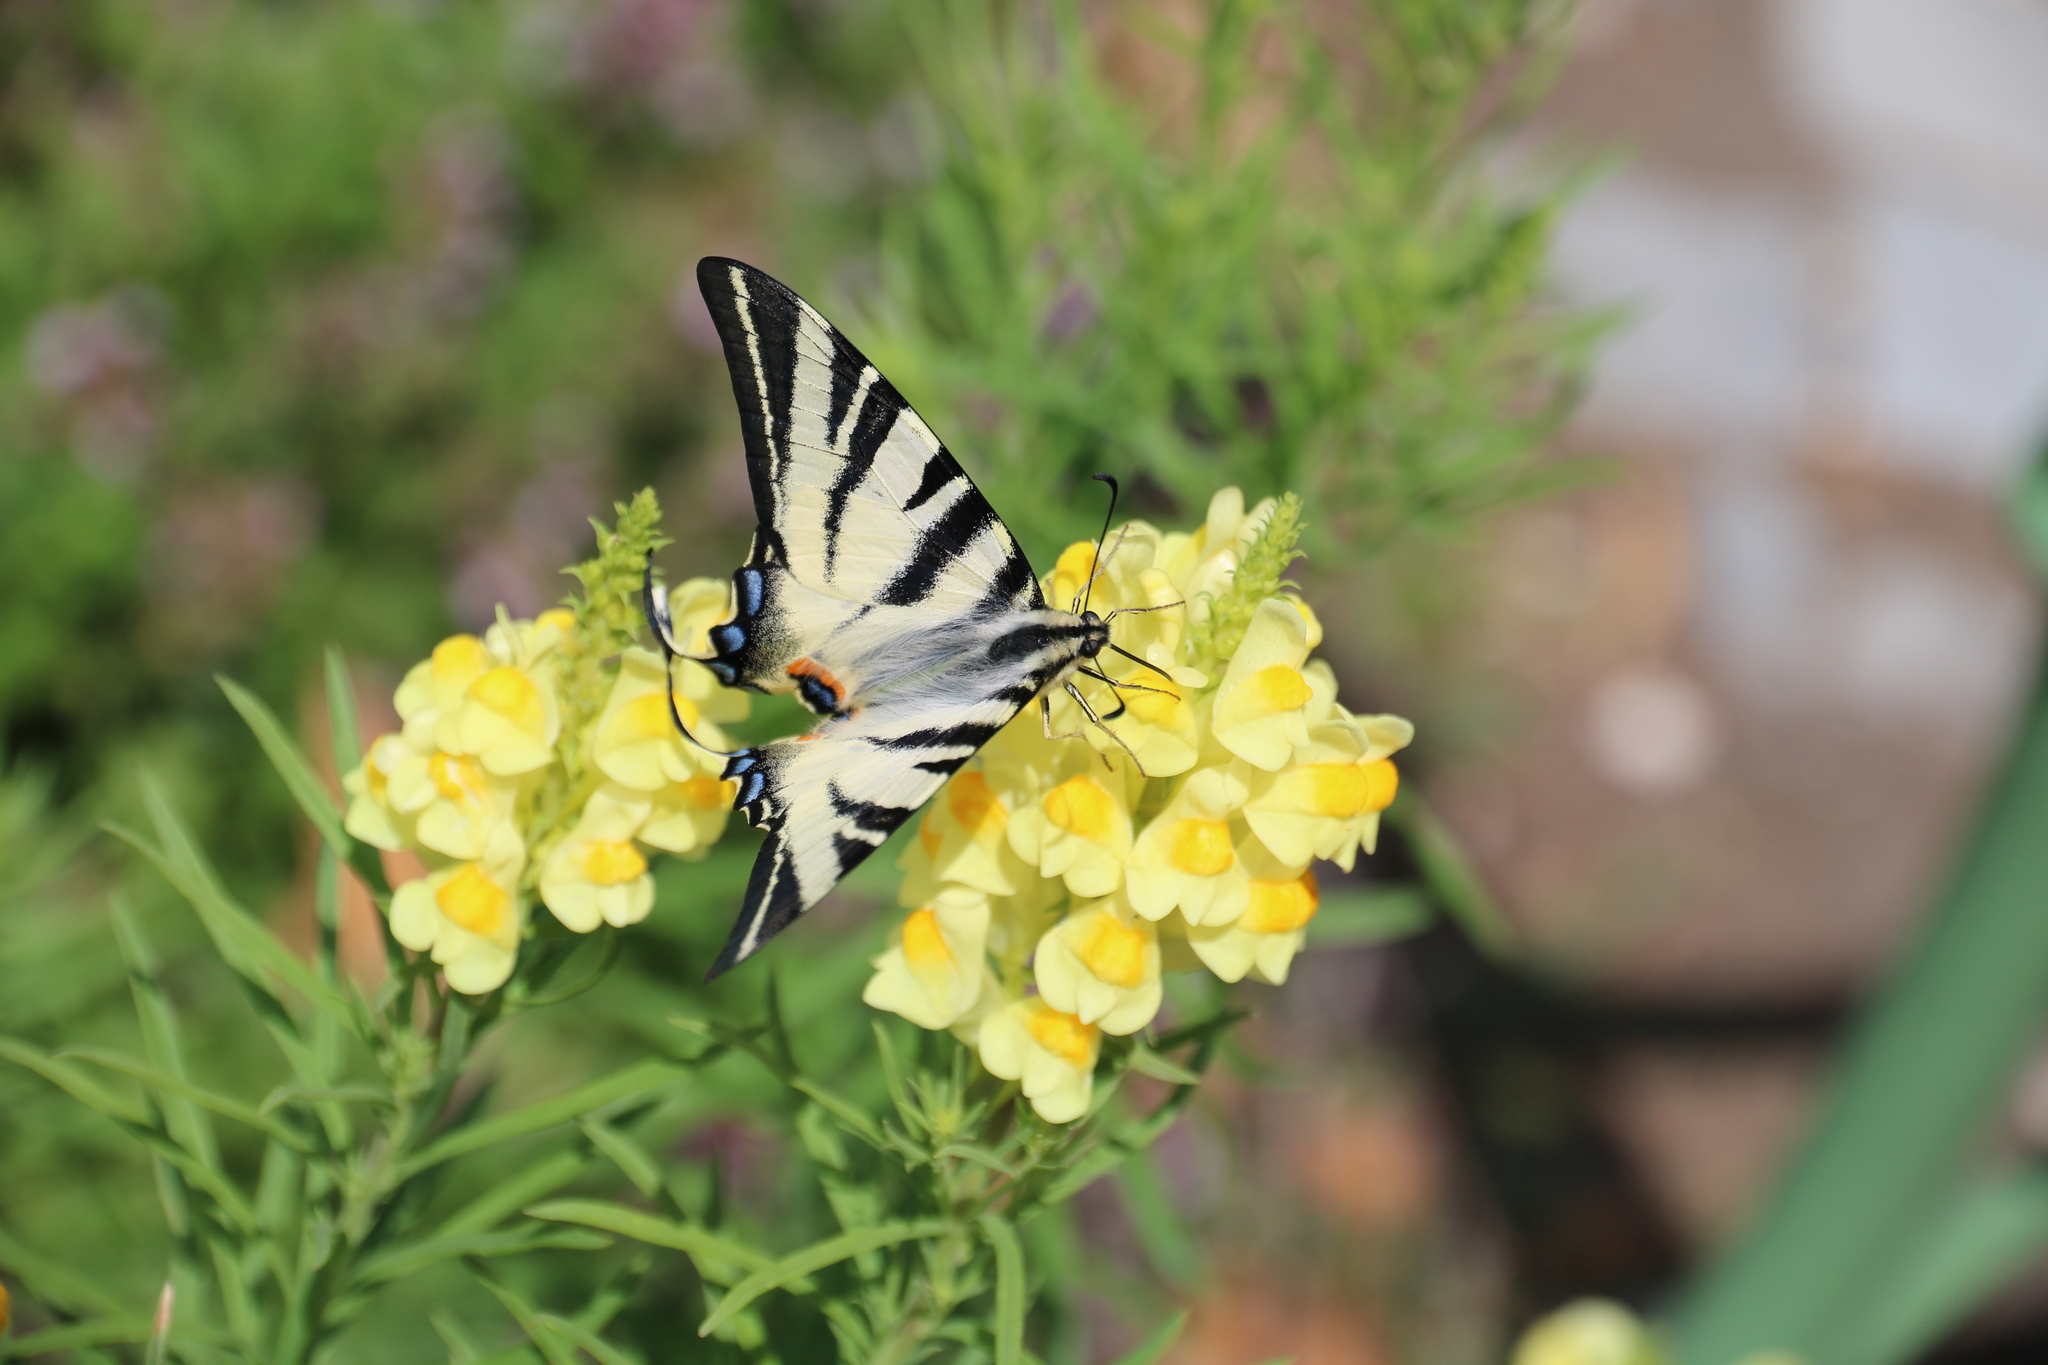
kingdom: Animalia
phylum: Arthropoda
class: Insecta
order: Lepidoptera
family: Papilionidae
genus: Iphiclides
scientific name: Iphiclides podalirius
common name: Scarce swallowtail
